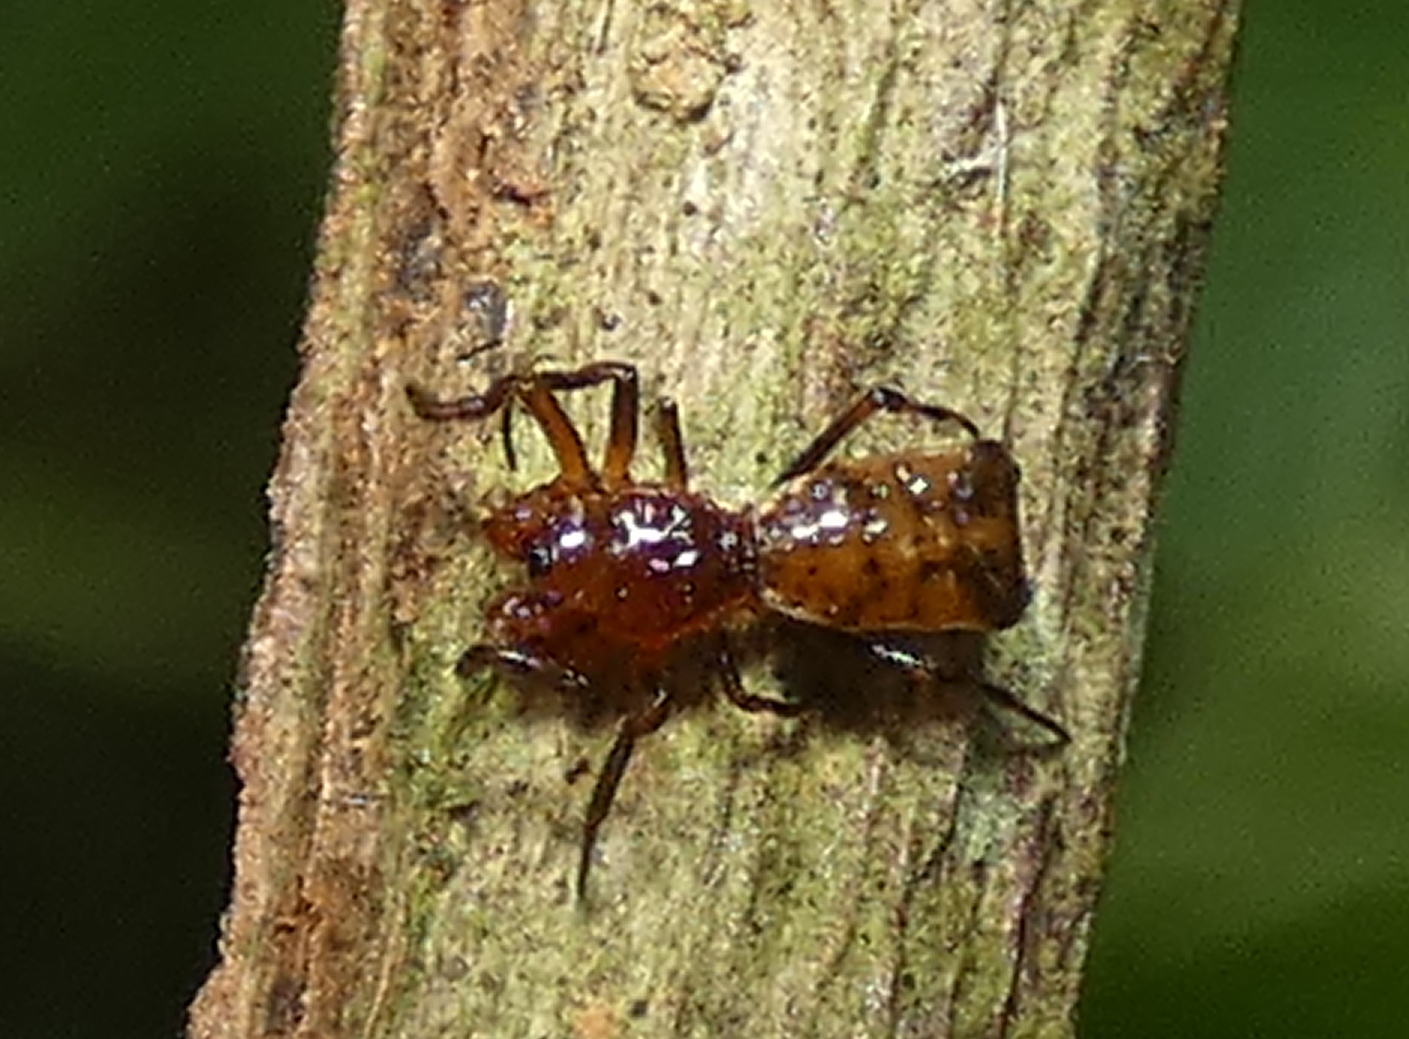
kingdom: Animalia
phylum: Arthropoda
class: Arachnida
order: Araneae
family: Araneidae
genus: Micrathena
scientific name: Micrathena picta
